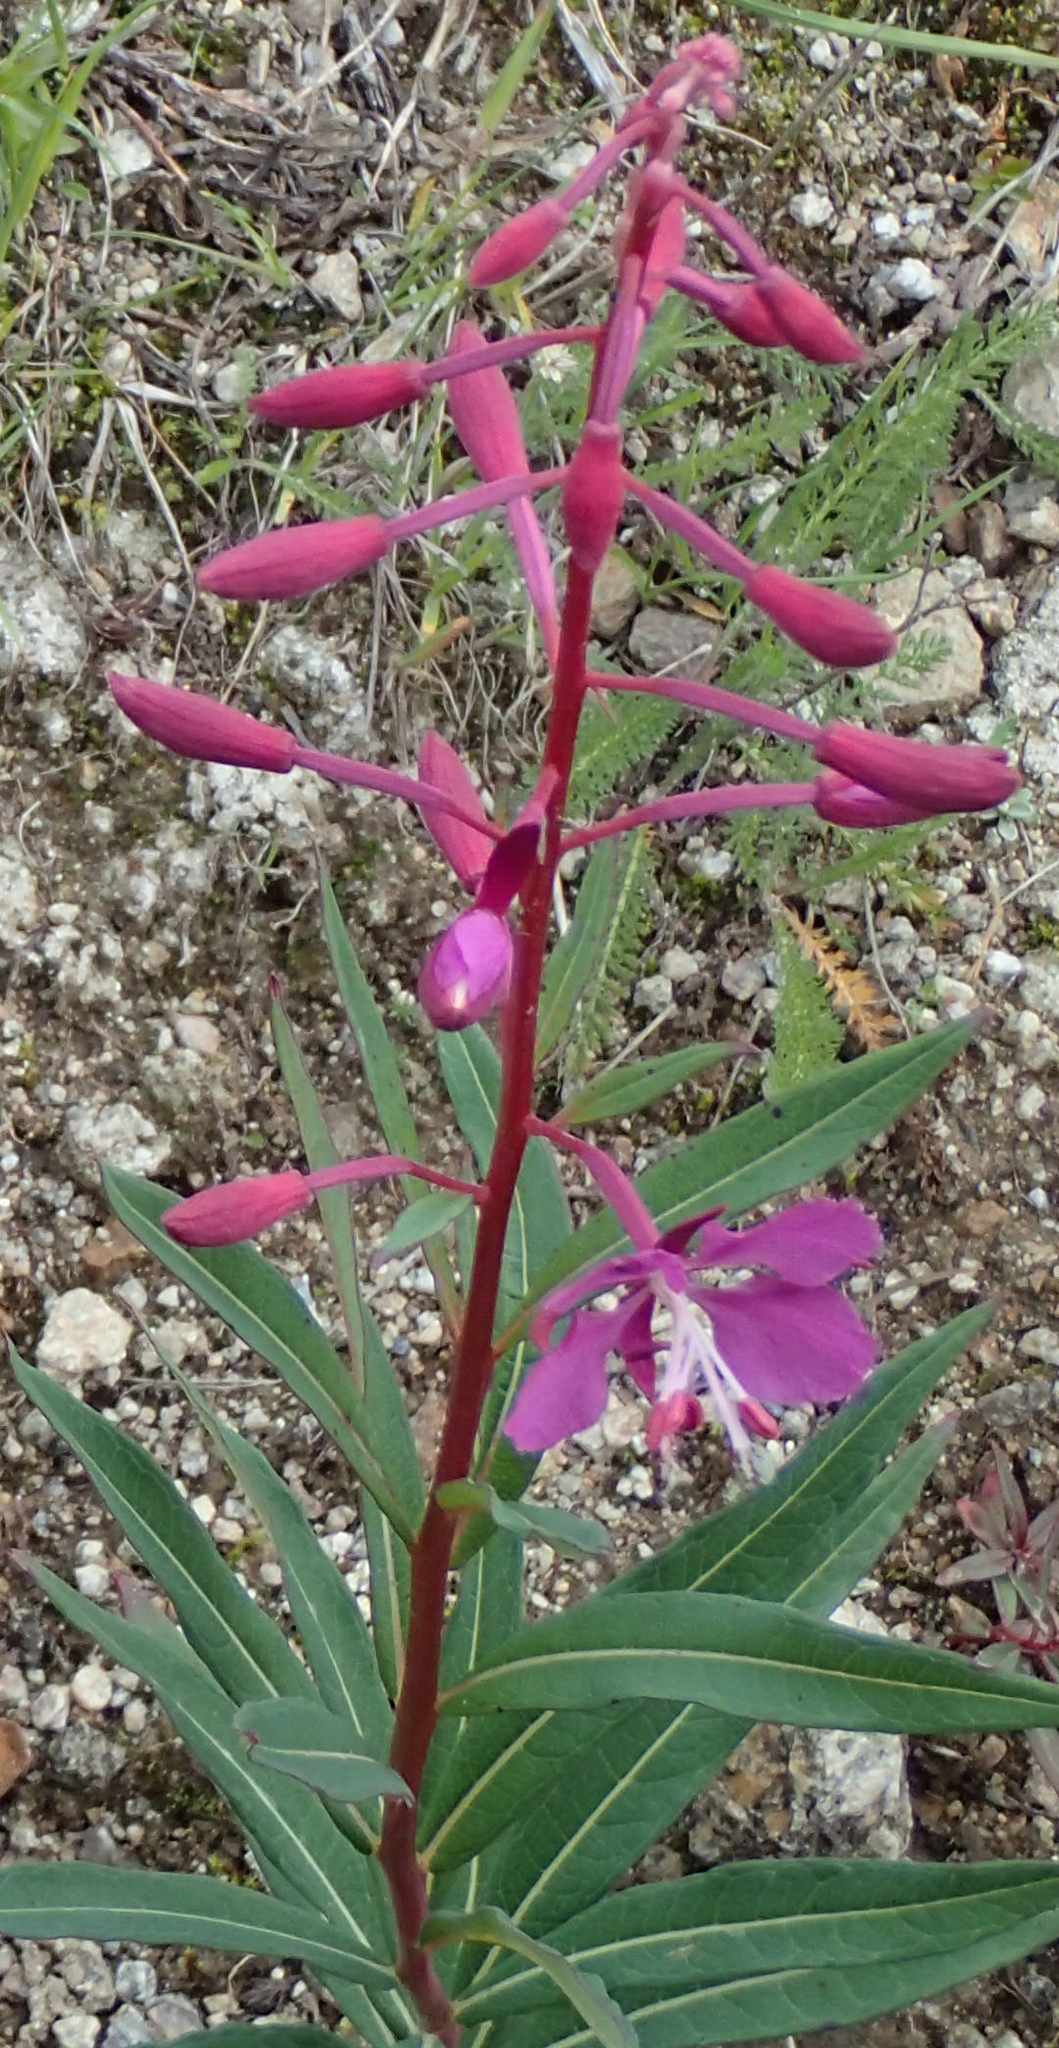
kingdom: Plantae
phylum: Tracheophyta
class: Magnoliopsida
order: Myrtales
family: Onagraceae
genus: Chamaenerion
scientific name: Chamaenerion angustifolium
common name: Fireweed
